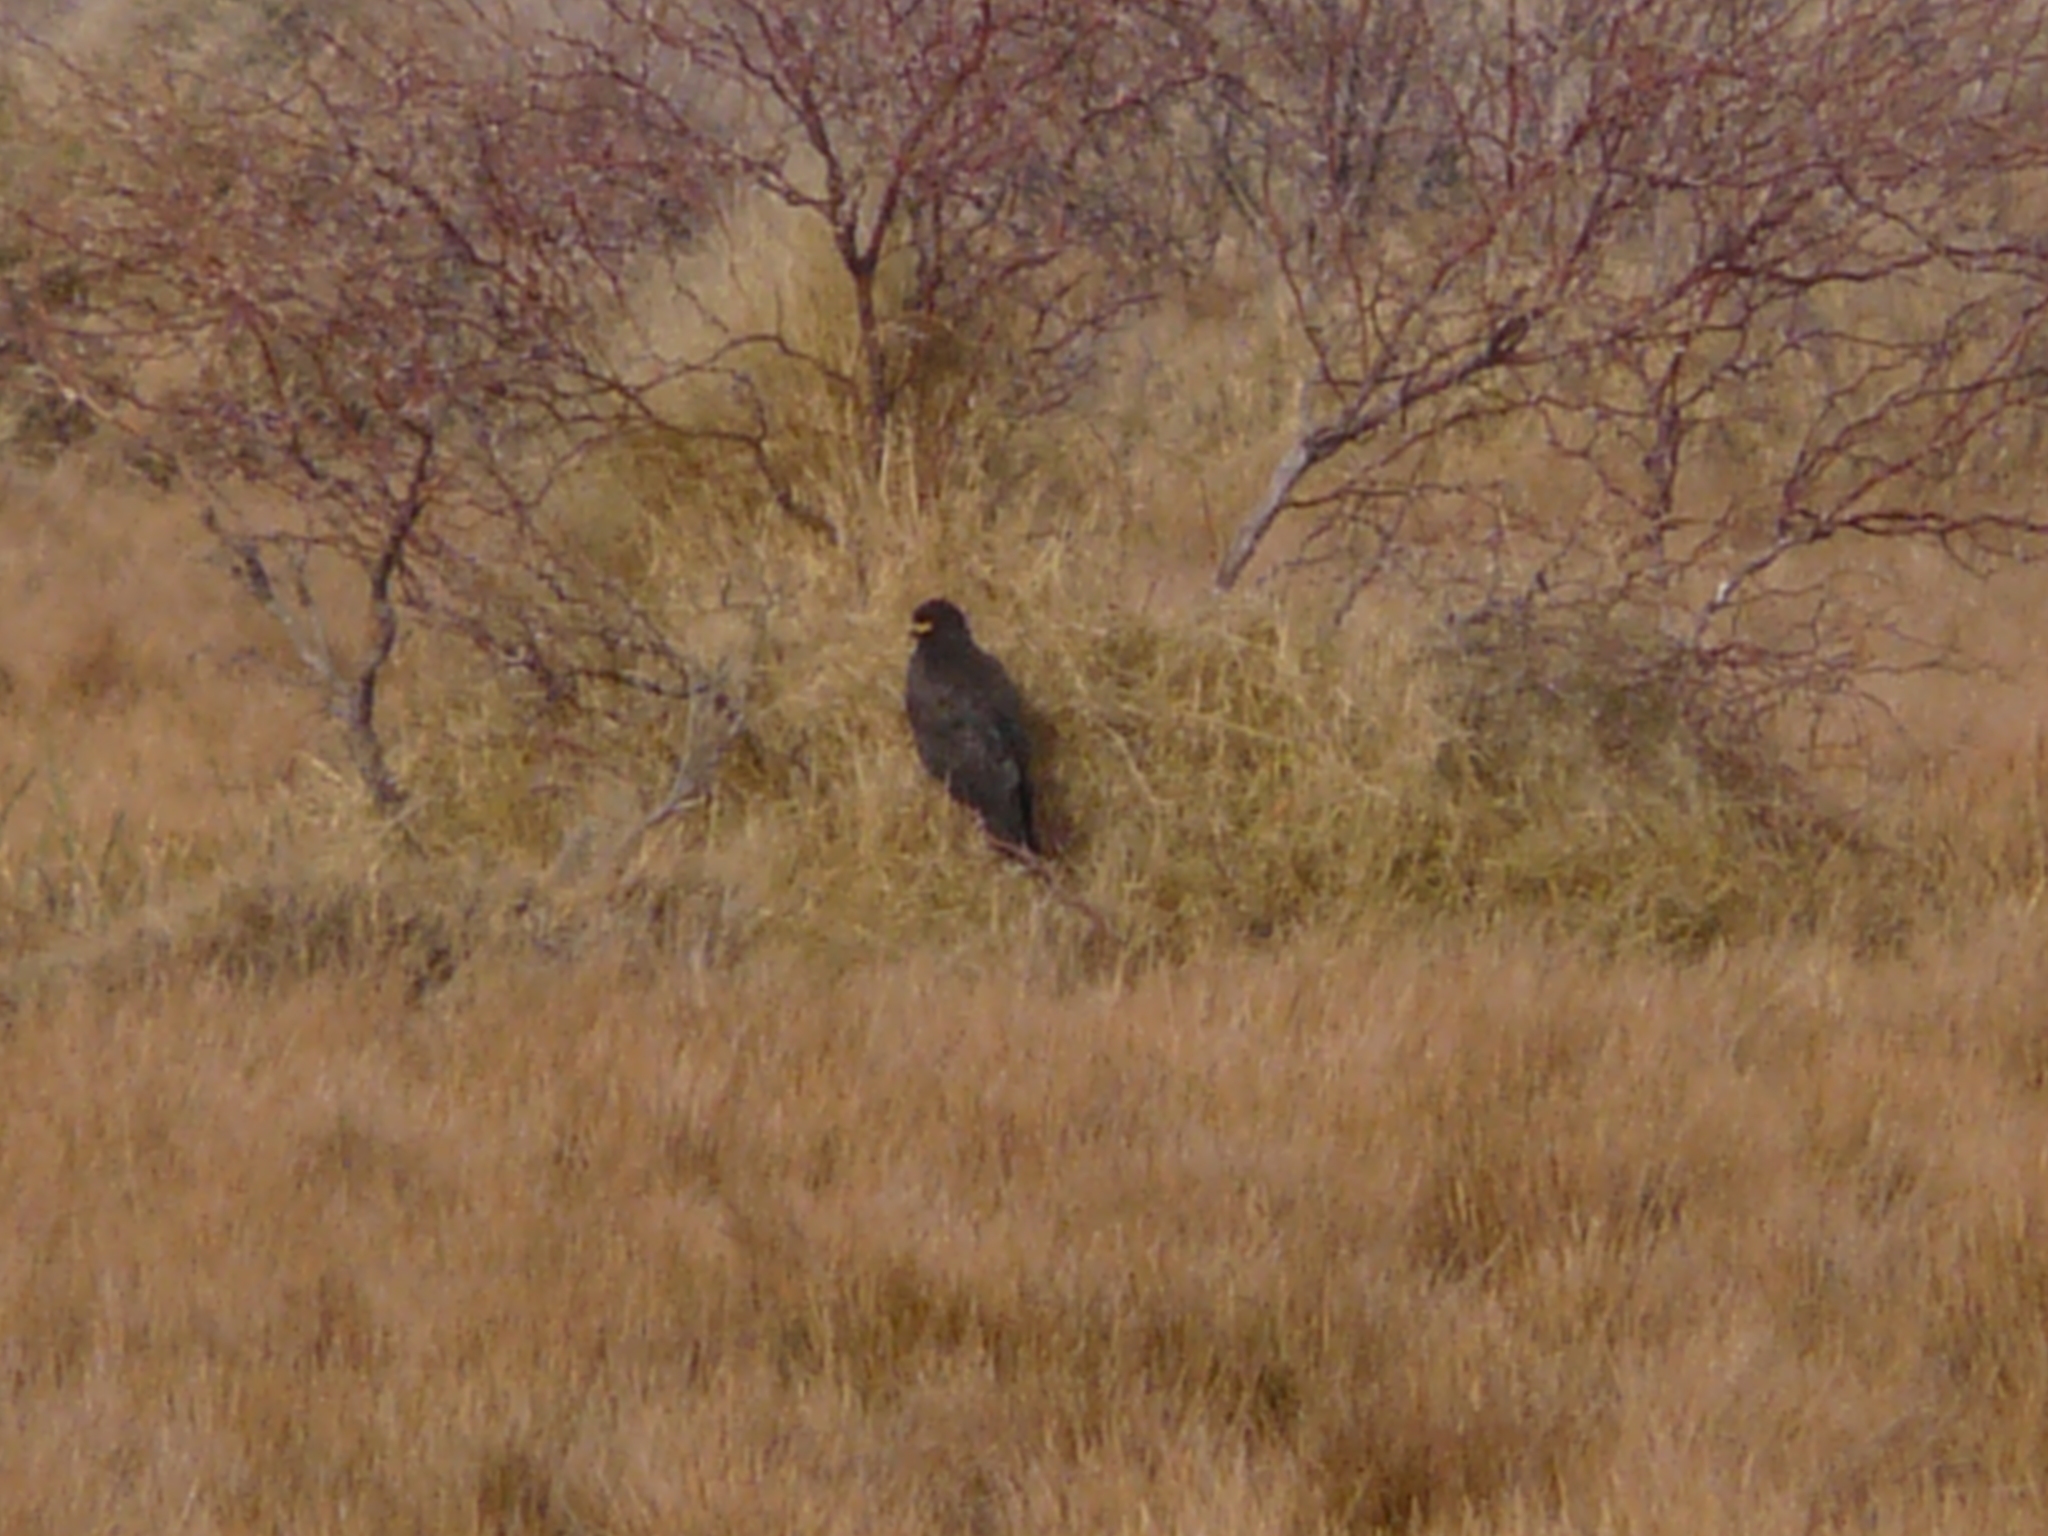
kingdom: Animalia
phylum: Chordata
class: Aves
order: Accipitriformes
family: Accipitridae
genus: Rostrhamus
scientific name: Rostrhamus sociabilis
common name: Snail kite
